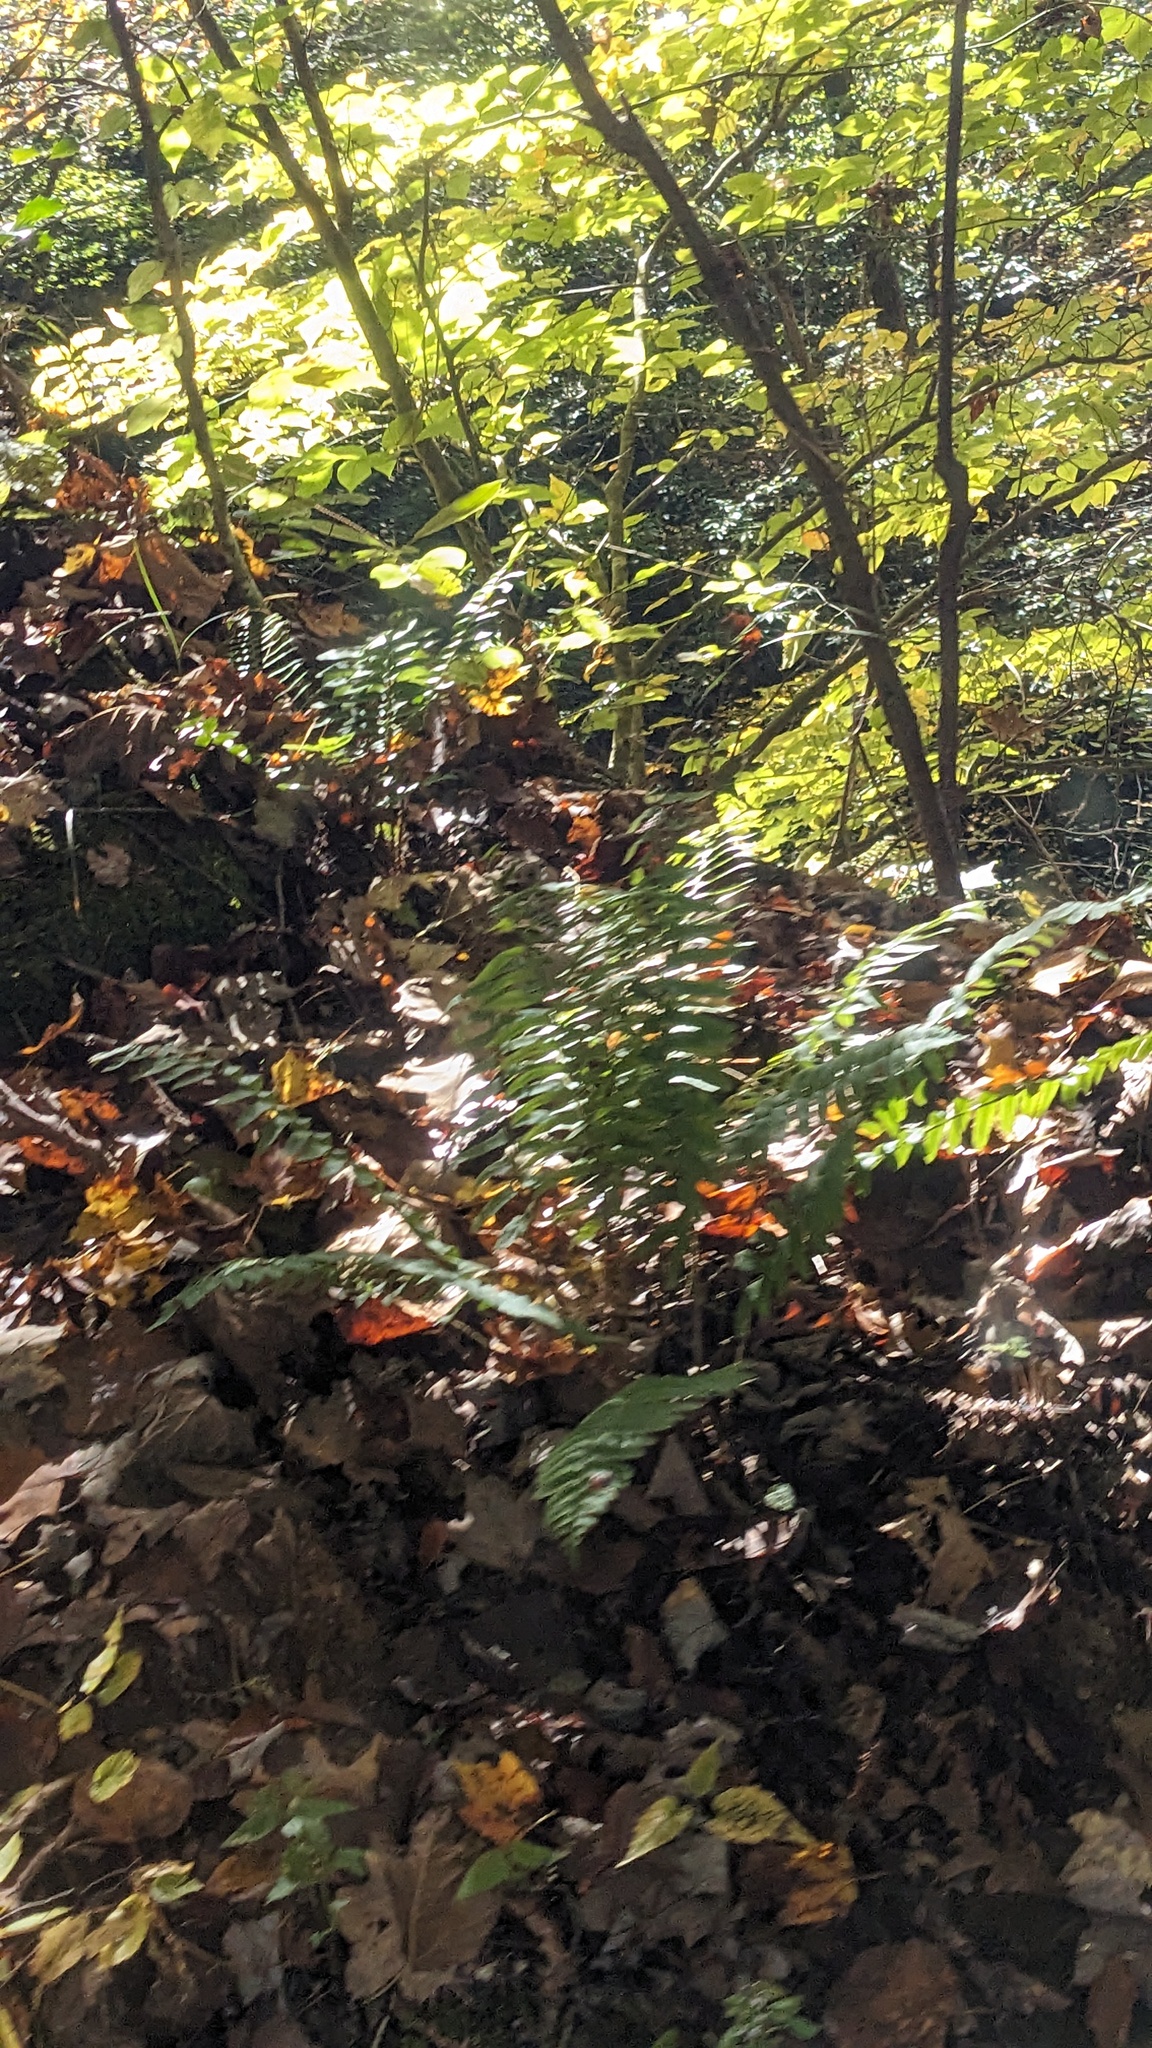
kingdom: Plantae
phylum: Tracheophyta
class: Polypodiopsida
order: Polypodiales
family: Dryopteridaceae
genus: Polystichum
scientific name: Polystichum acrostichoides
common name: Christmas fern
